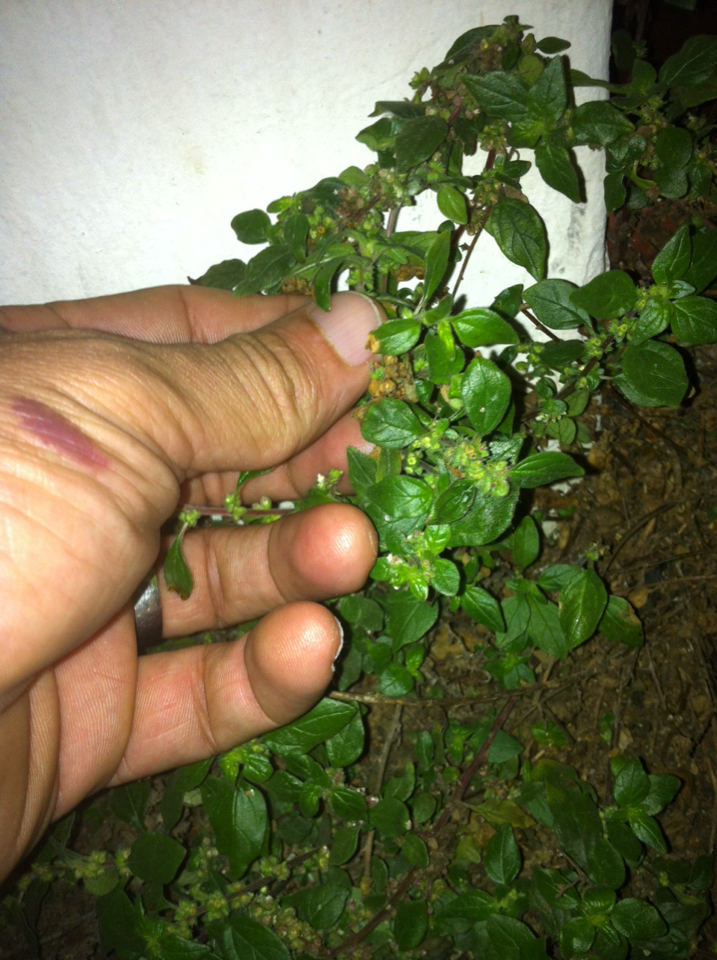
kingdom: Plantae
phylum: Tracheophyta
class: Magnoliopsida
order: Rosales
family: Urticaceae
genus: Parietaria
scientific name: Parietaria judaica
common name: Pellitory-of-the-wall
